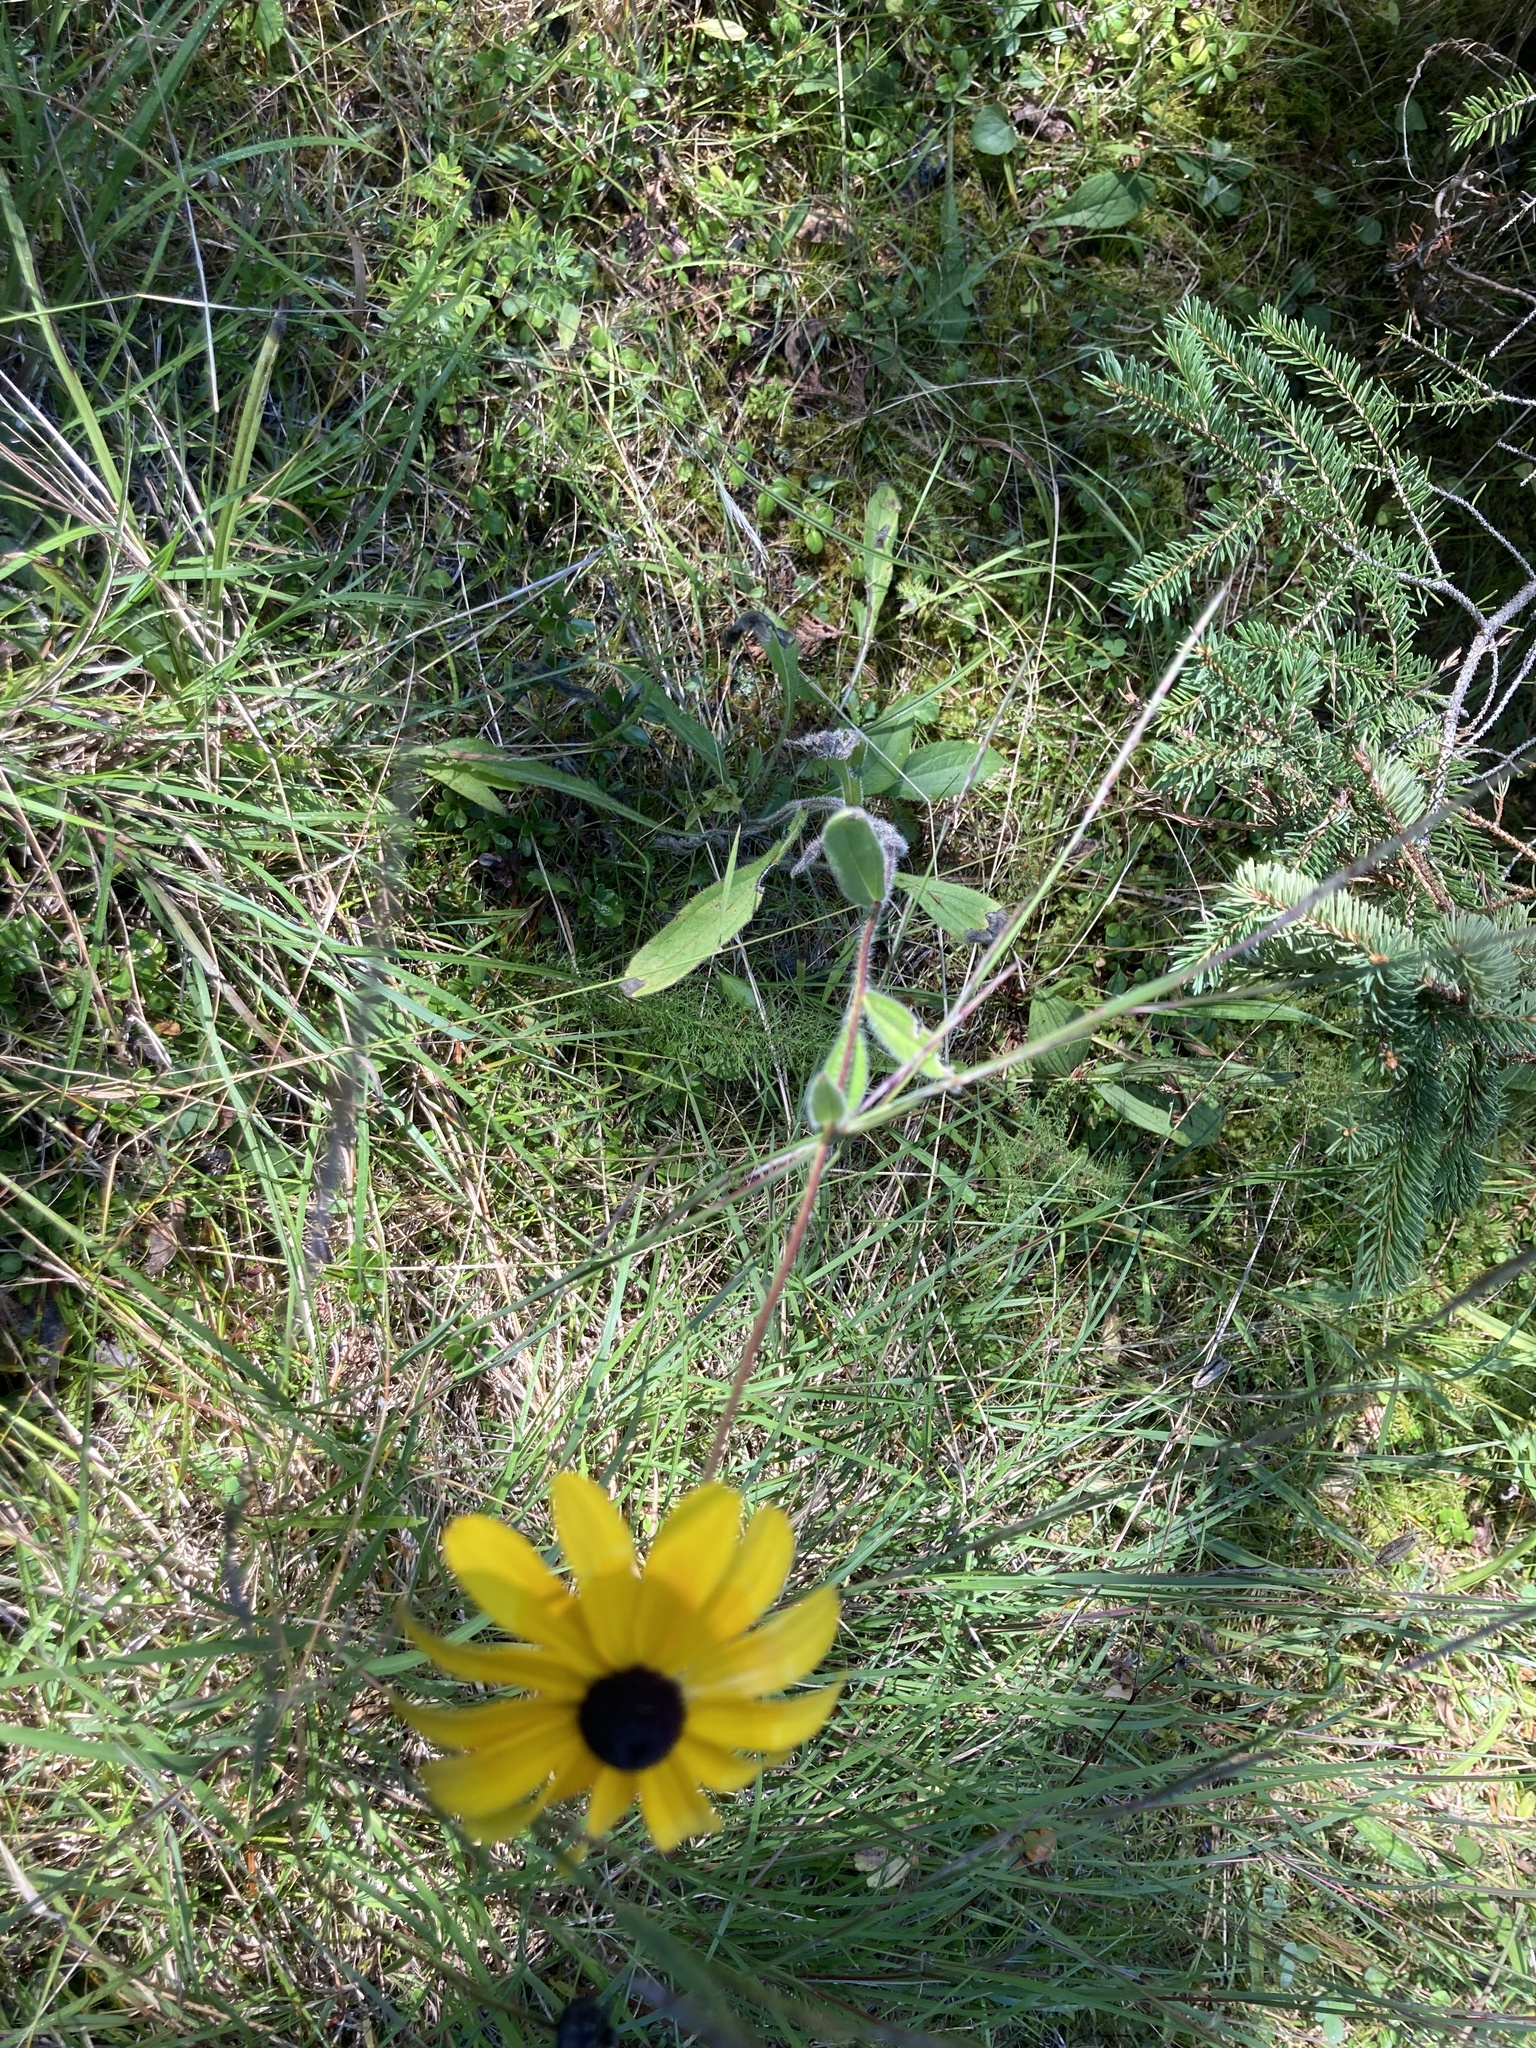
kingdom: Plantae
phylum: Tracheophyta
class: Magnoliopsida
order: Asterales
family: Asteraceae
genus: Rudbeckia
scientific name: Rudbeckia hirta
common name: Black-eyed-susan
